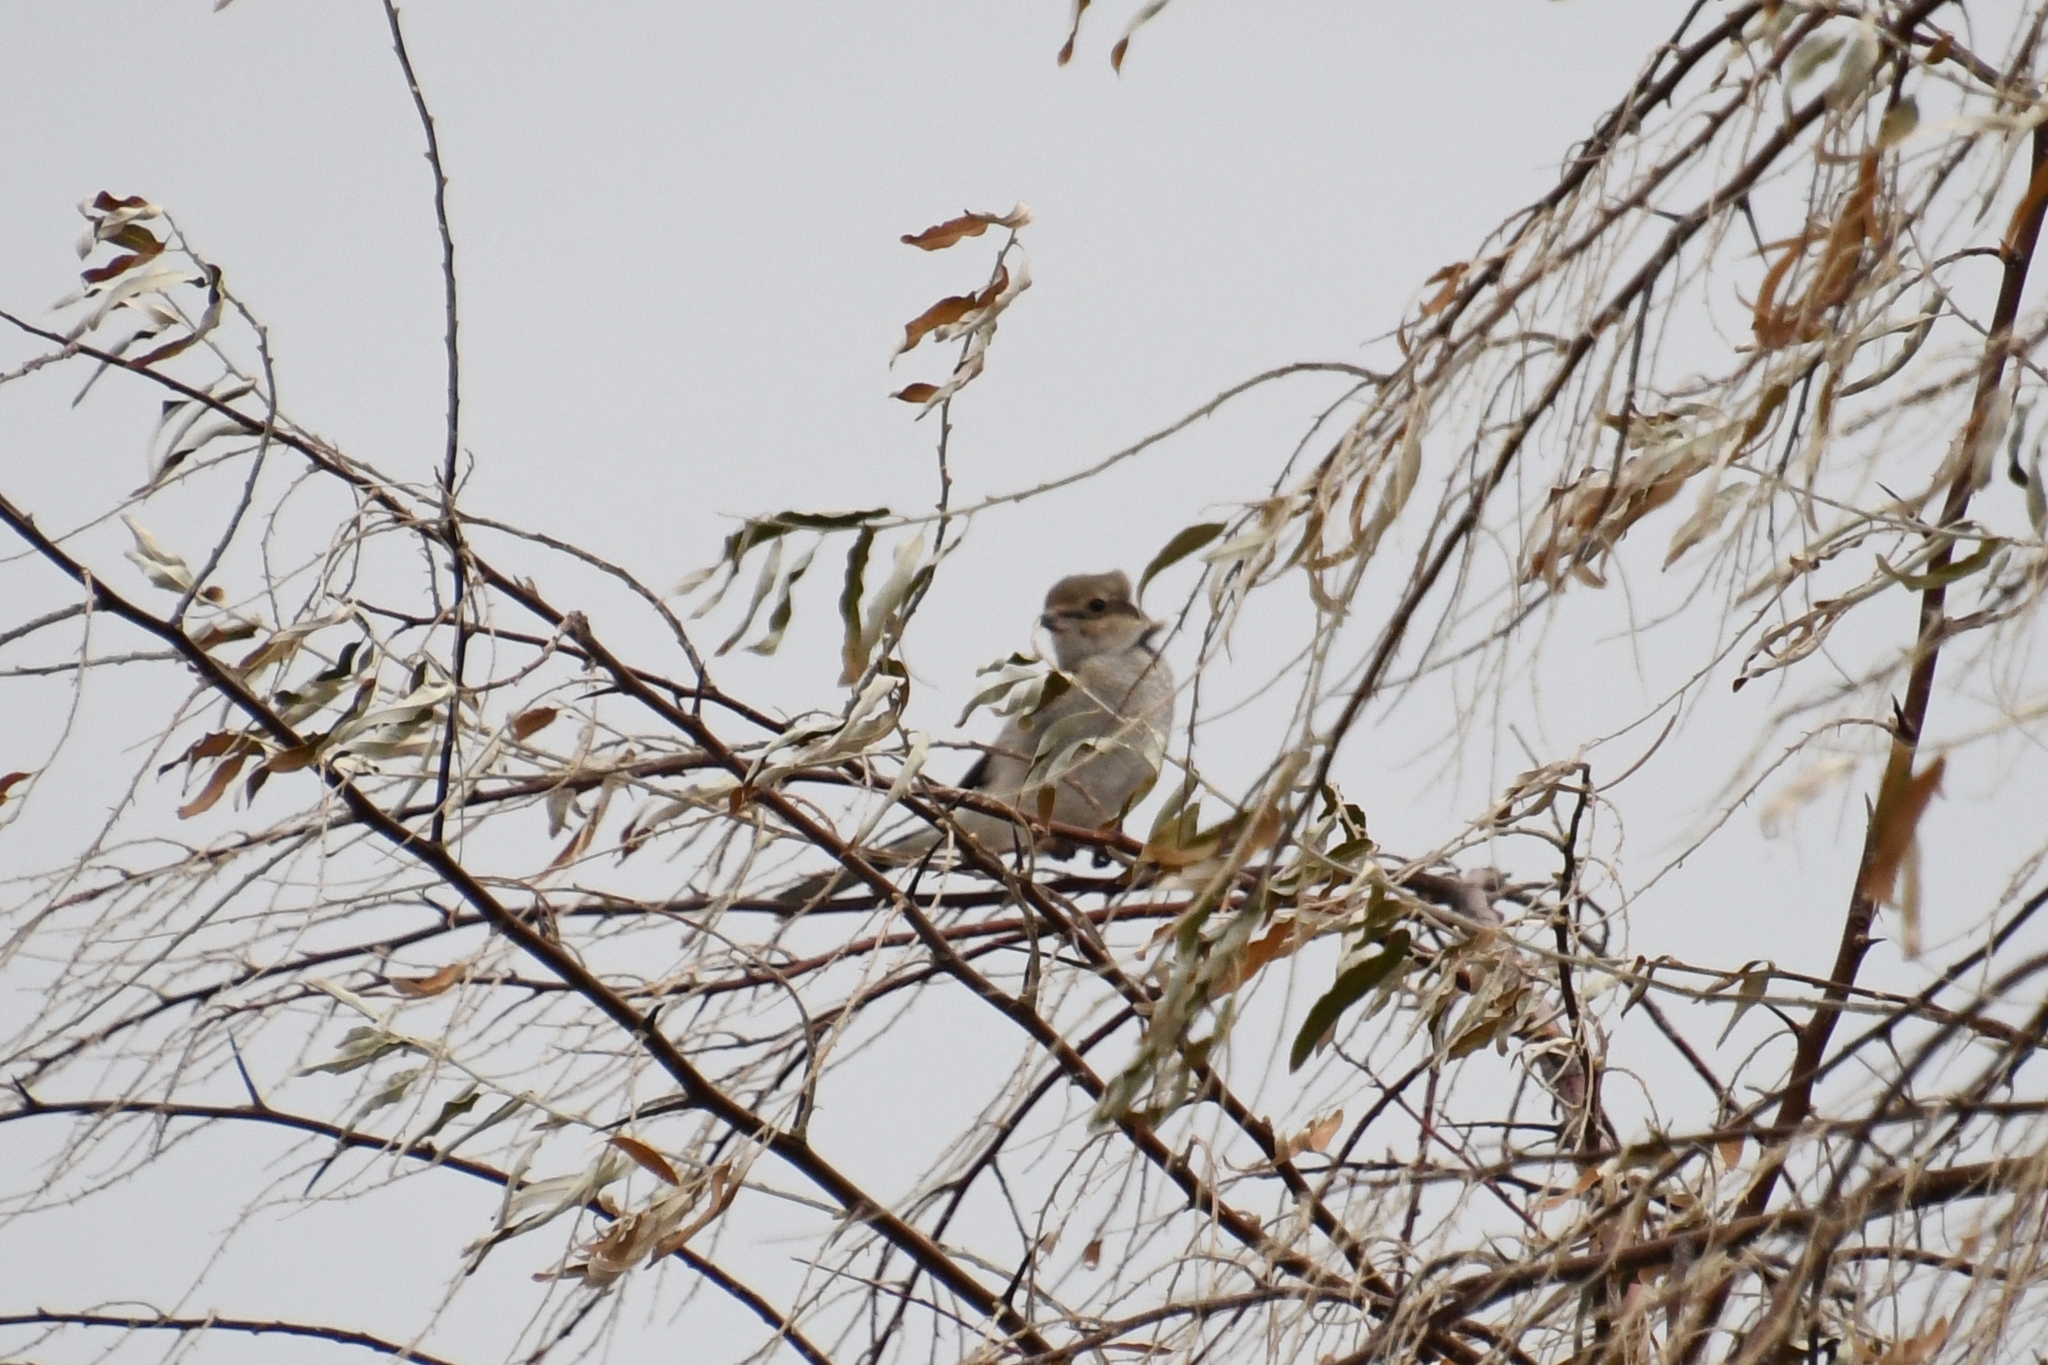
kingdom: Animalia
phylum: Chordata
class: Aves
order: Passeriformes
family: Laniidae
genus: Lanius
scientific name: Lanius borealis
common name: Northern shrike
